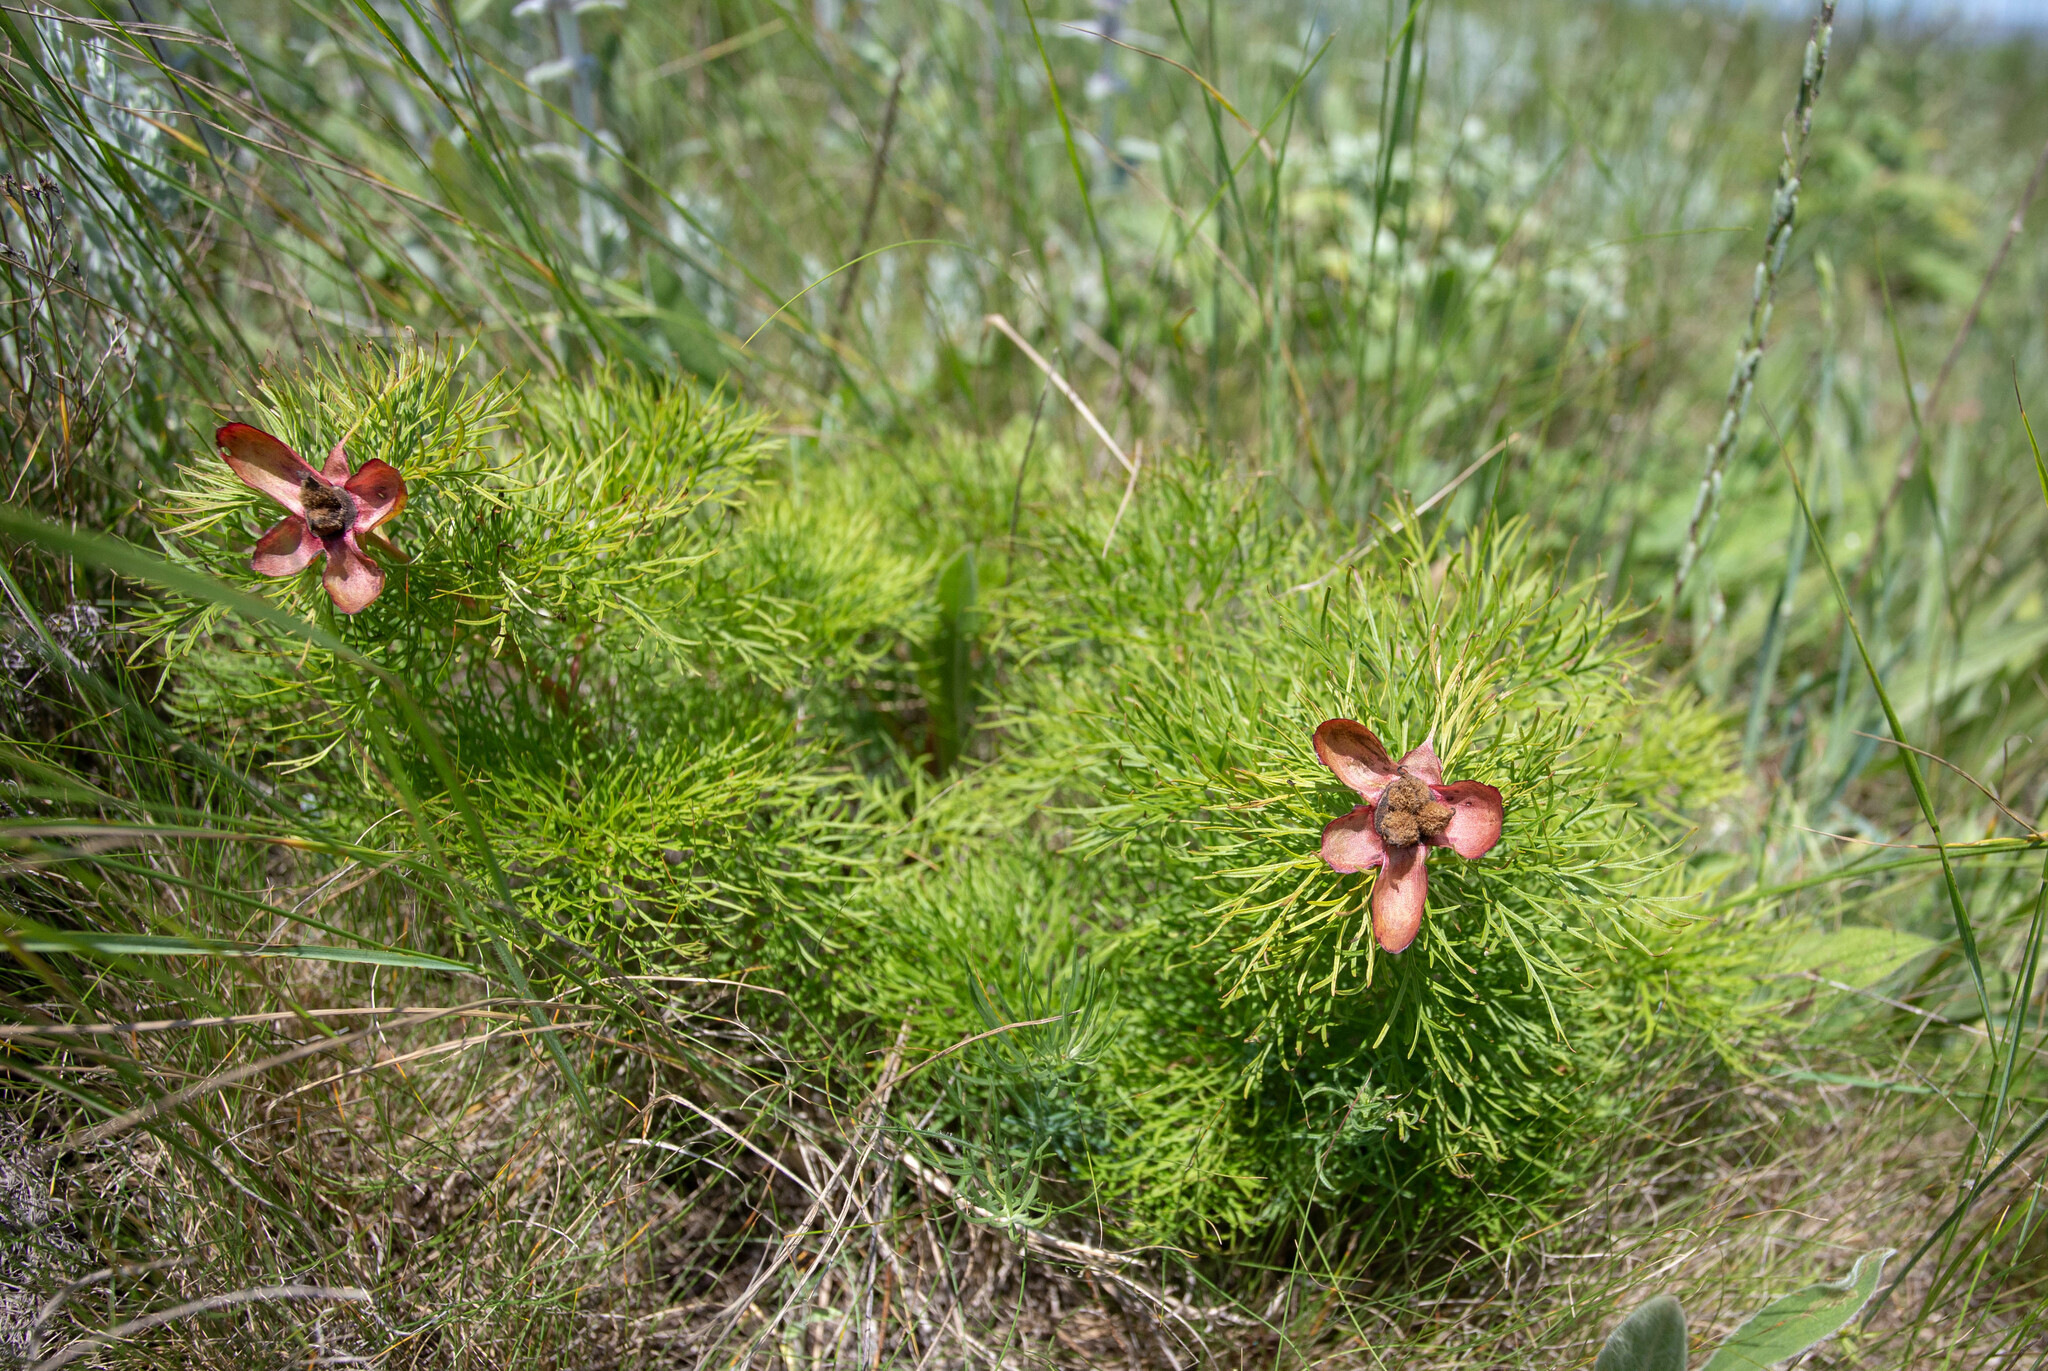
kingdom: Plantae
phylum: Tracheophyta
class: Magnoliopsida
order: Saxifragales
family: Paeoniaceae
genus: Paeonia
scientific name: Paeonia tenuifolia
